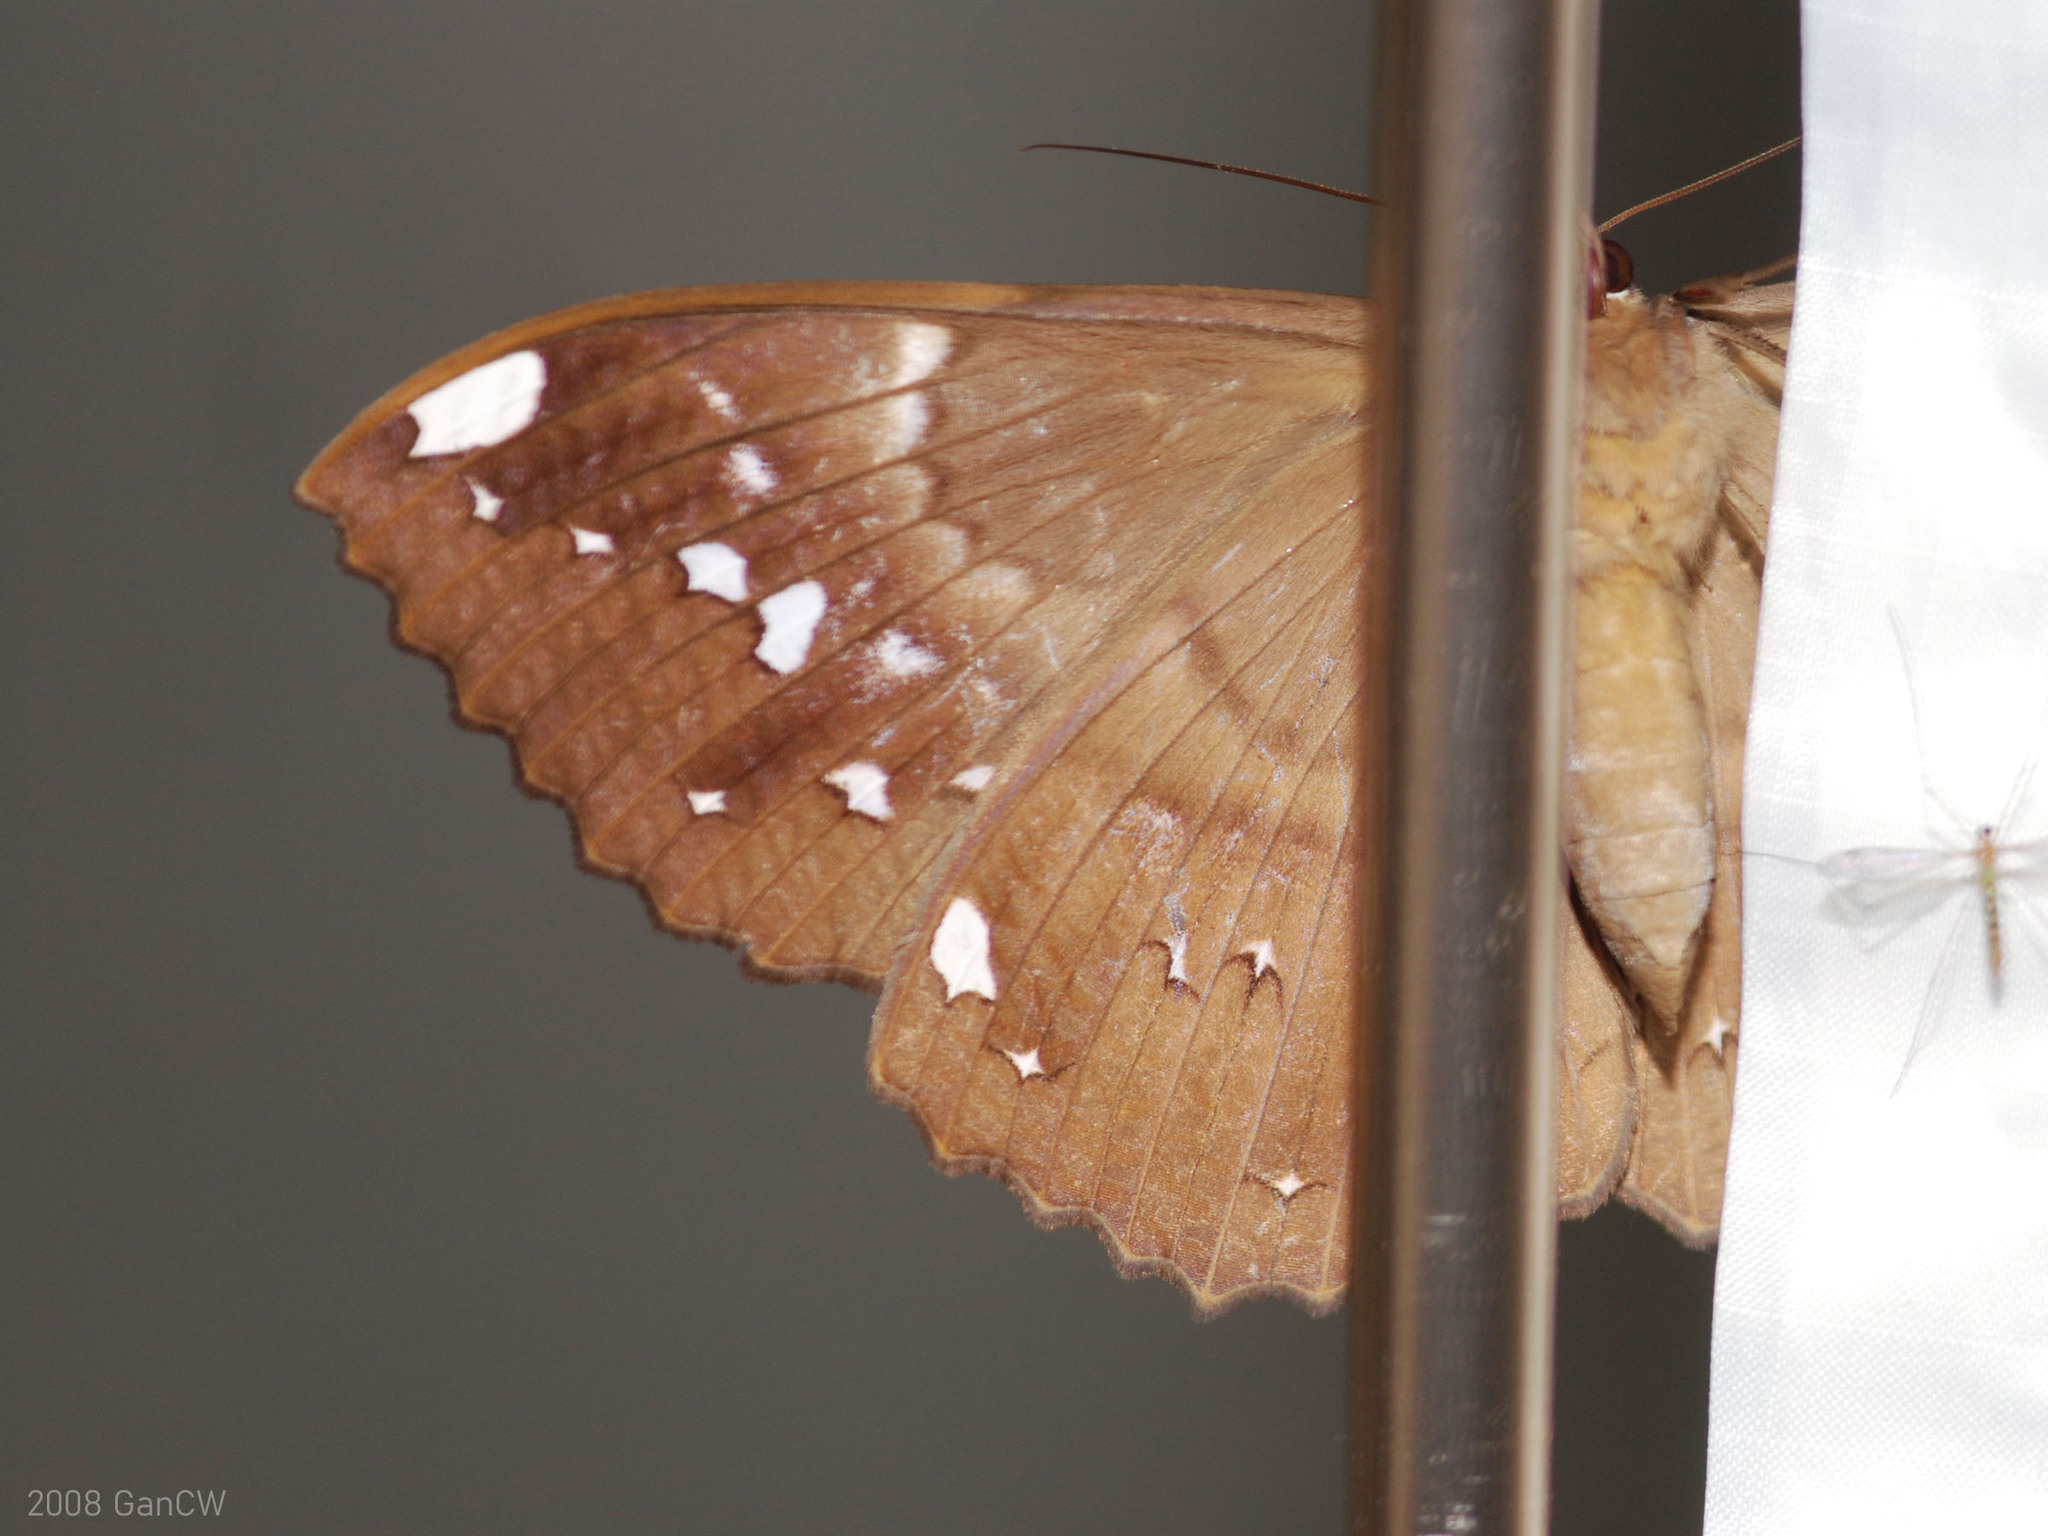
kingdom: Animalia
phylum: Arthropoda
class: Insecta
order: Lepidoptera
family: Erebidae
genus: Erebus
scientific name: Erebus ephesperis
